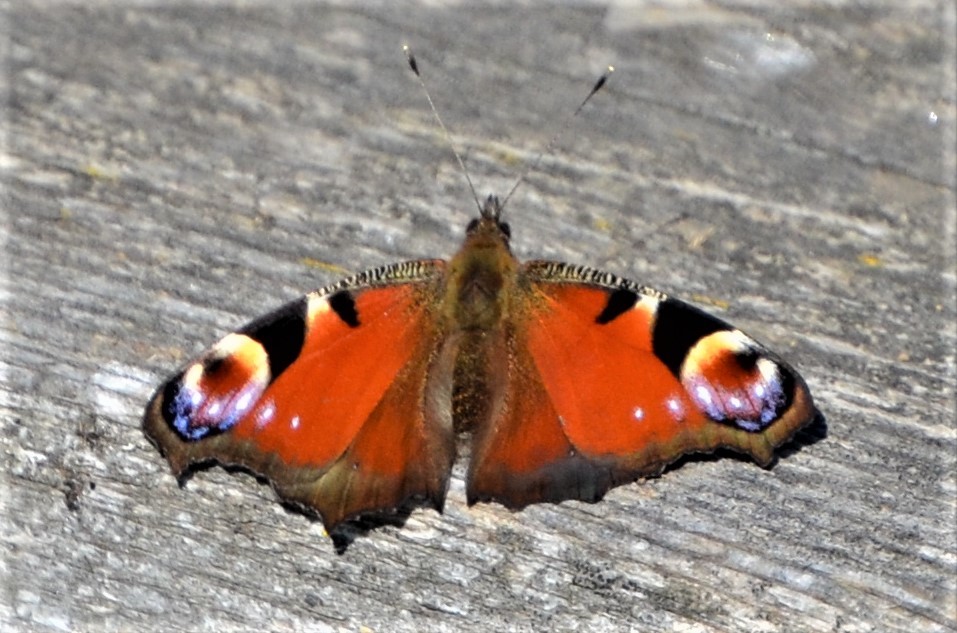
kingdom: Animalia
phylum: Arthropoda
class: Insecta
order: Lepidoptera
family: Nymphalidae
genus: Aglais
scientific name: Aglais io
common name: Peacock
